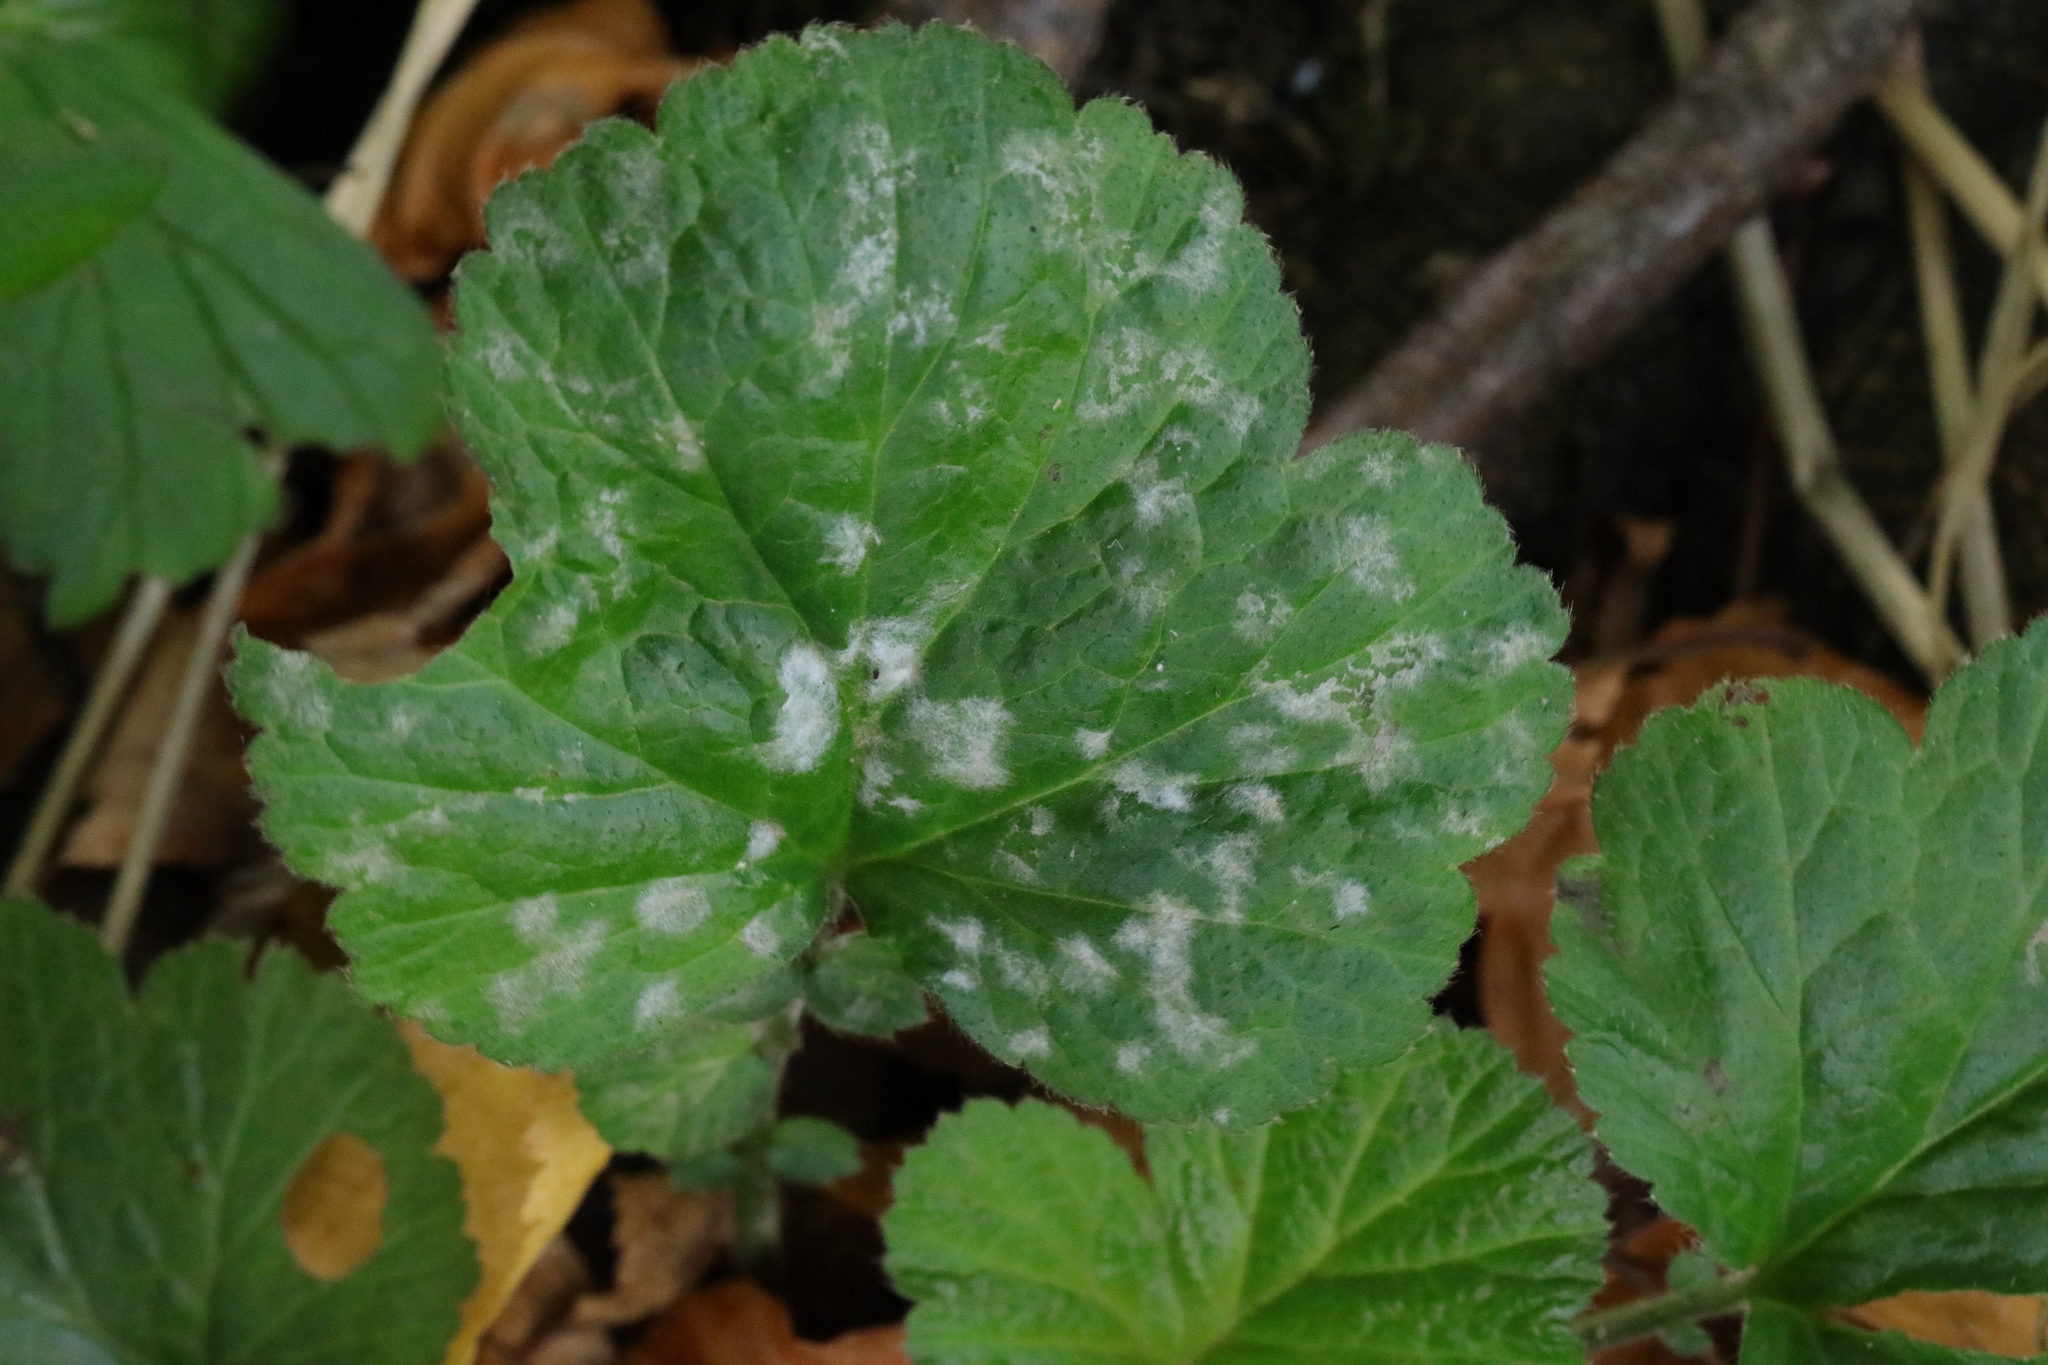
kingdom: Fungi
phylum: Ascomycota
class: Leotiomycetes
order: Helotiales
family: Erysiphaceae
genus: Podosphaera
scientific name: Podosphaera aphanis
